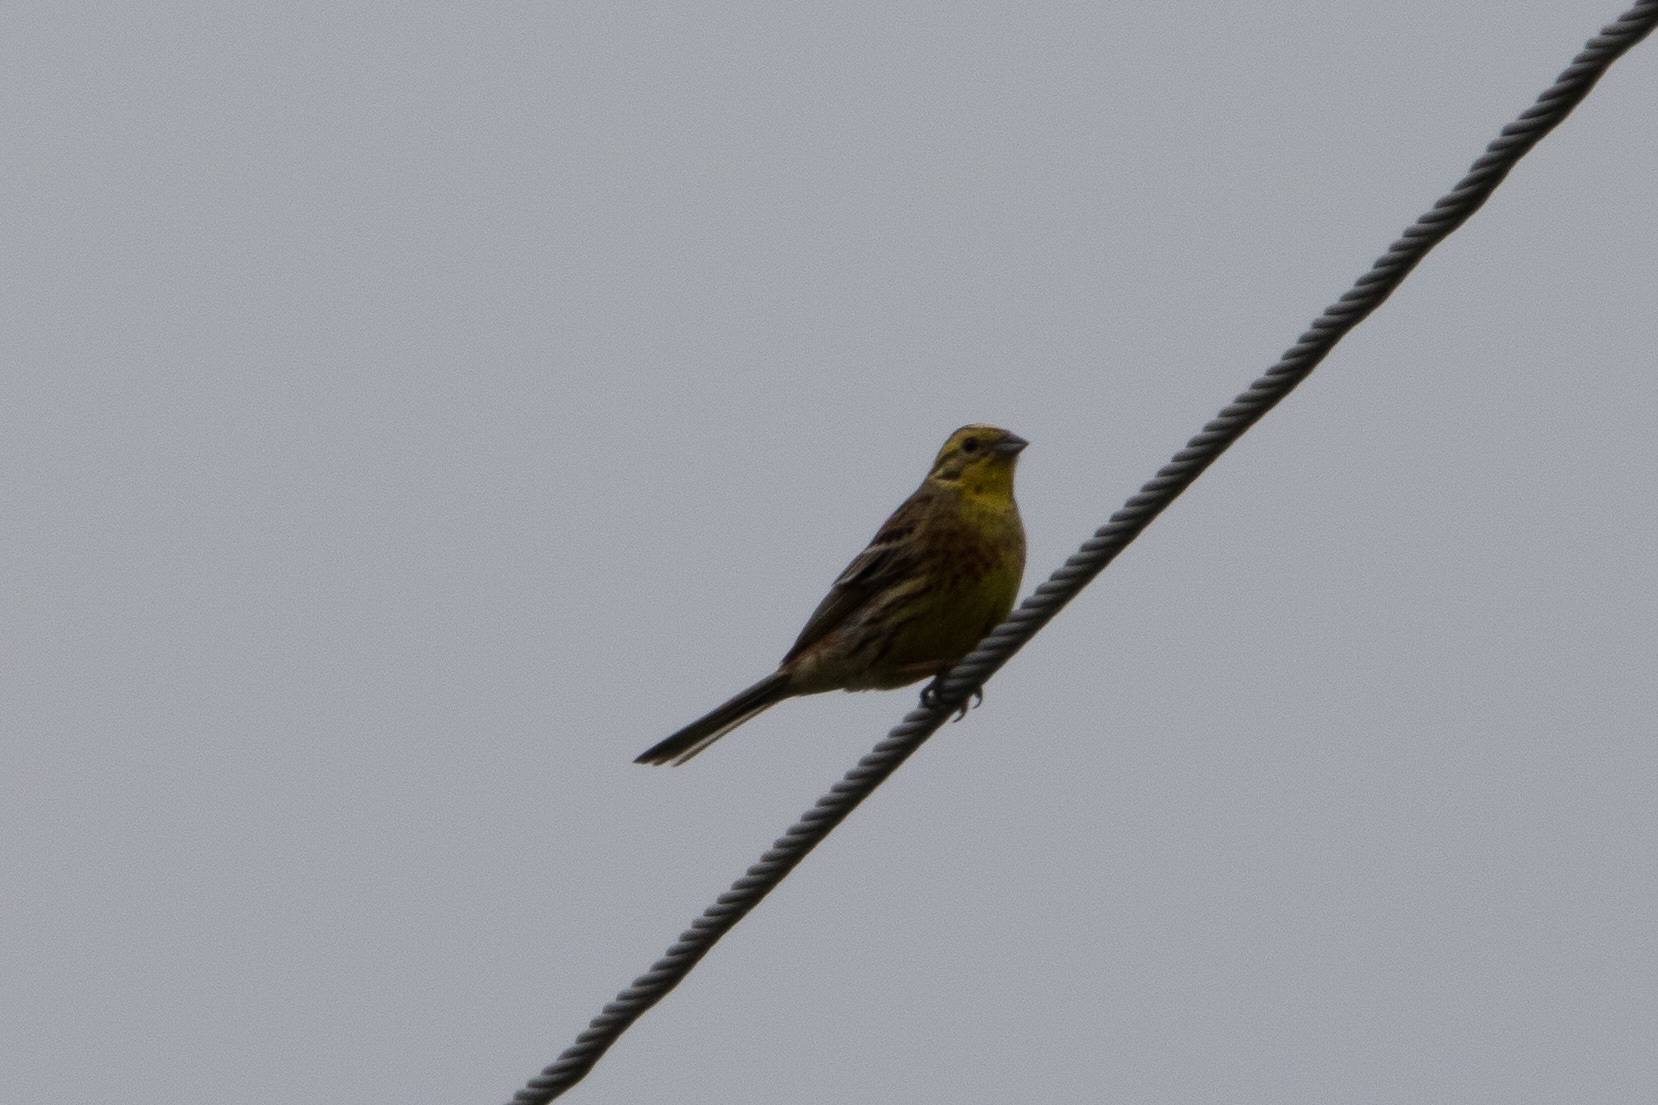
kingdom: Animalia
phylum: Chordata
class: Aves
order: Passeriformes
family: Emberizidae
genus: Emberiza
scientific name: Emberiza citrinella
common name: Yellowhammer
